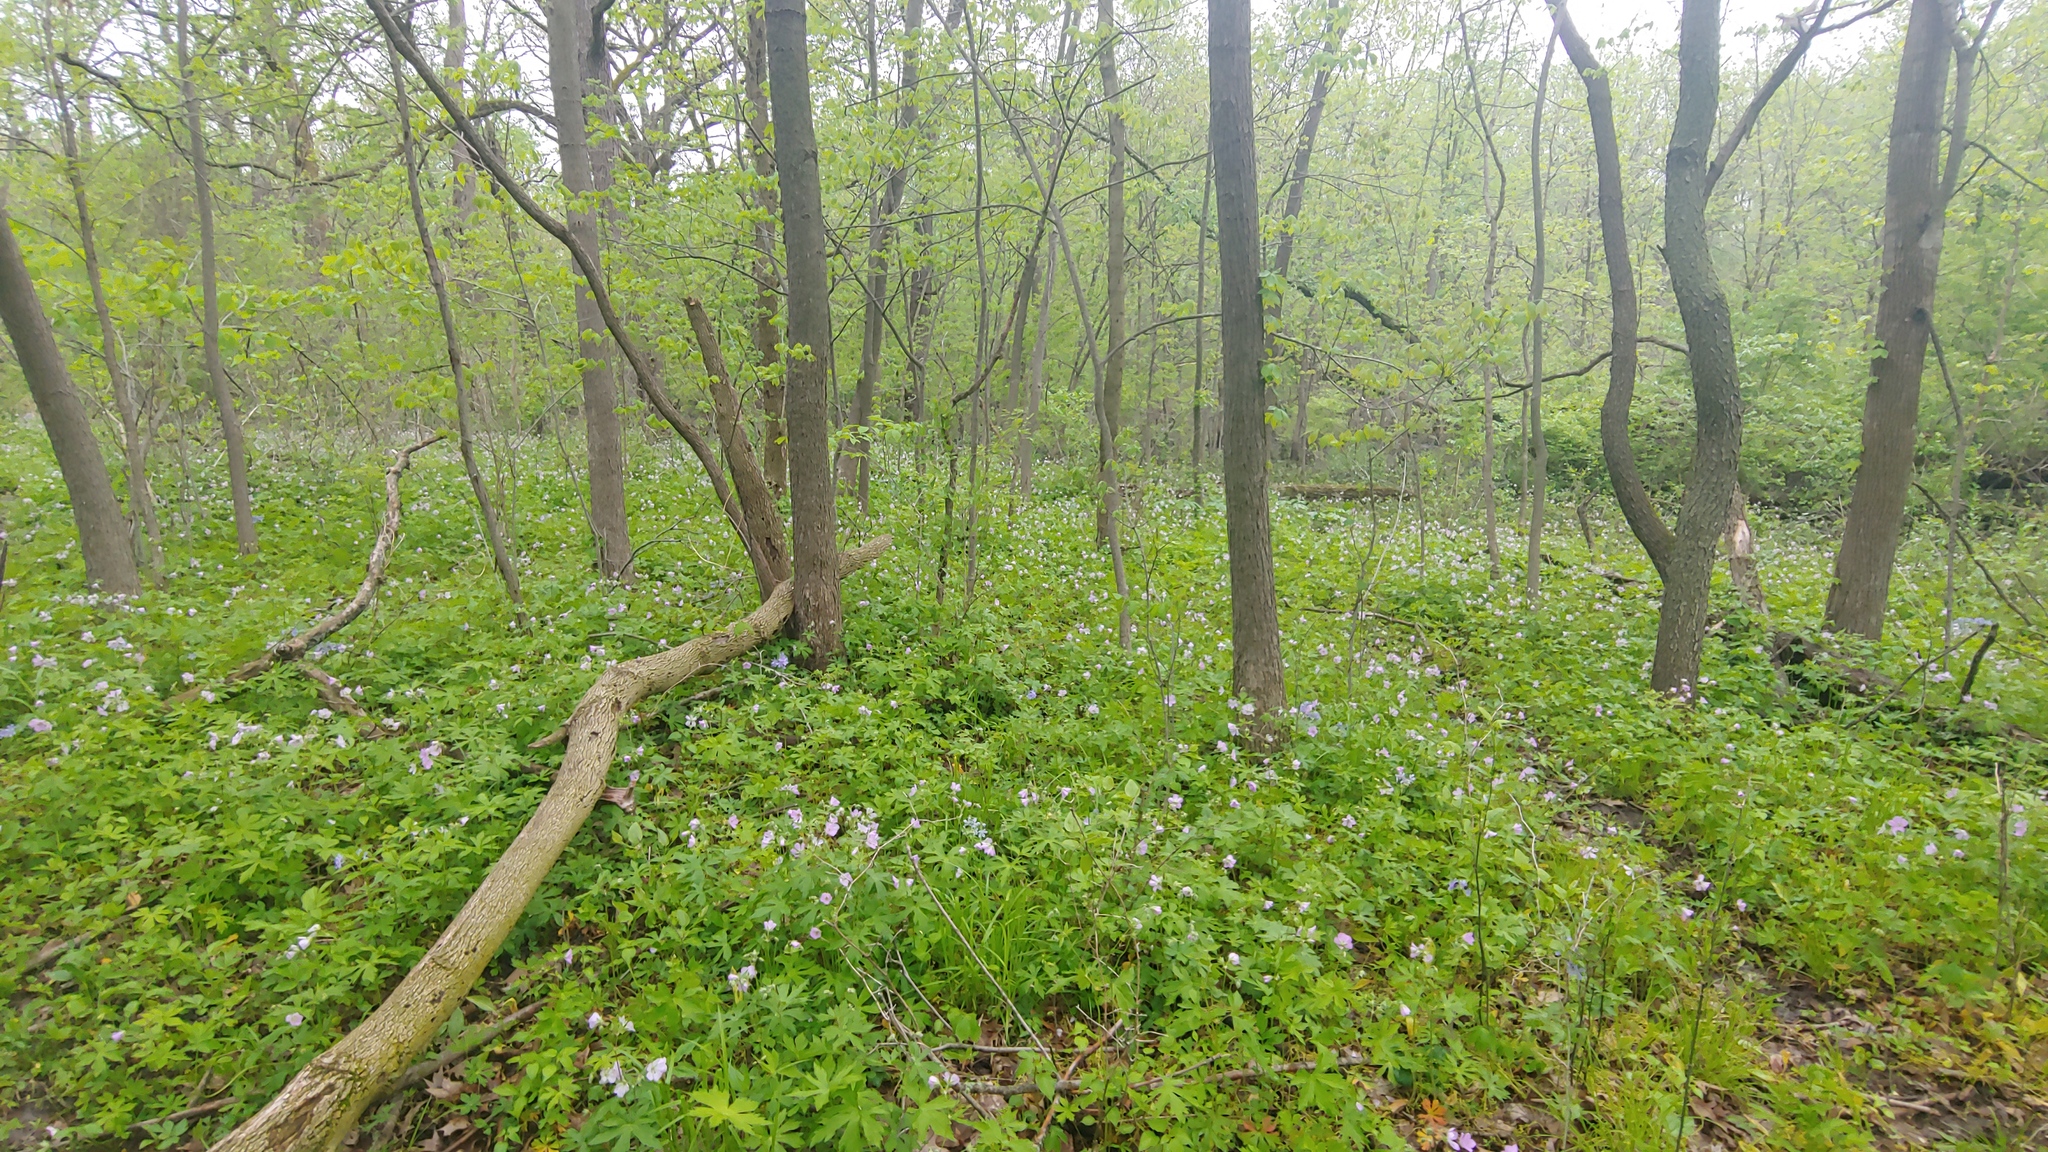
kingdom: Plantae
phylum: Tracheophyta
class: Magnoliopsida
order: Geraniales
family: Geraniaceae
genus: Geranium
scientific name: Geranium maculatum
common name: Spotted geranium
